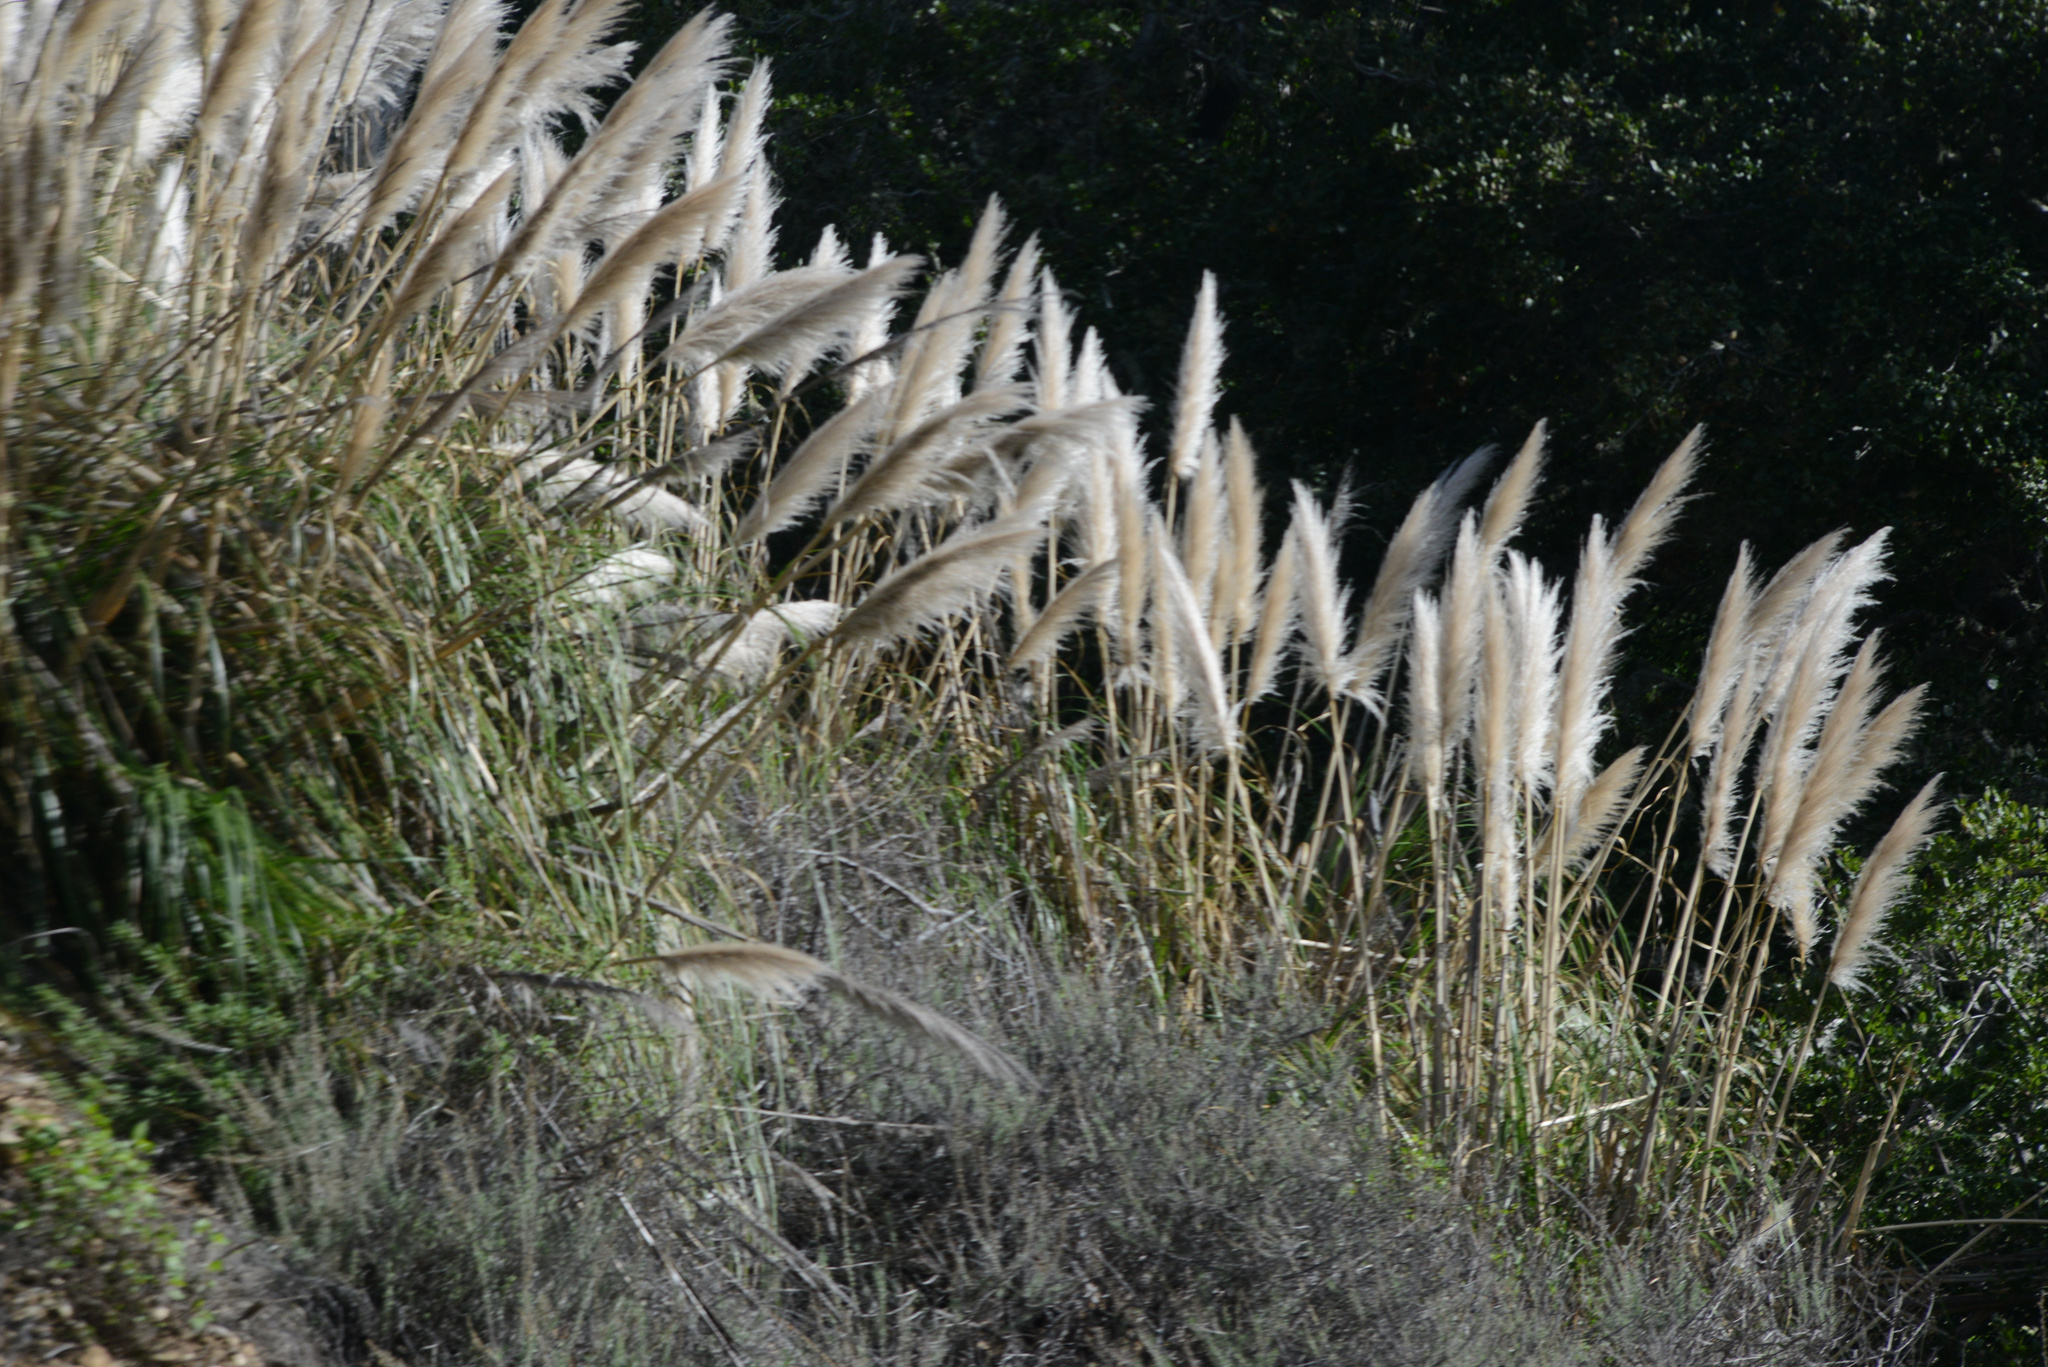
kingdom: Plantae
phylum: Tracheophyta
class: Liliopsida
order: Poales
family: Poaceae
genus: Cortaderia
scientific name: Cortaderia selloana
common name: Uruguayan pampas grass
